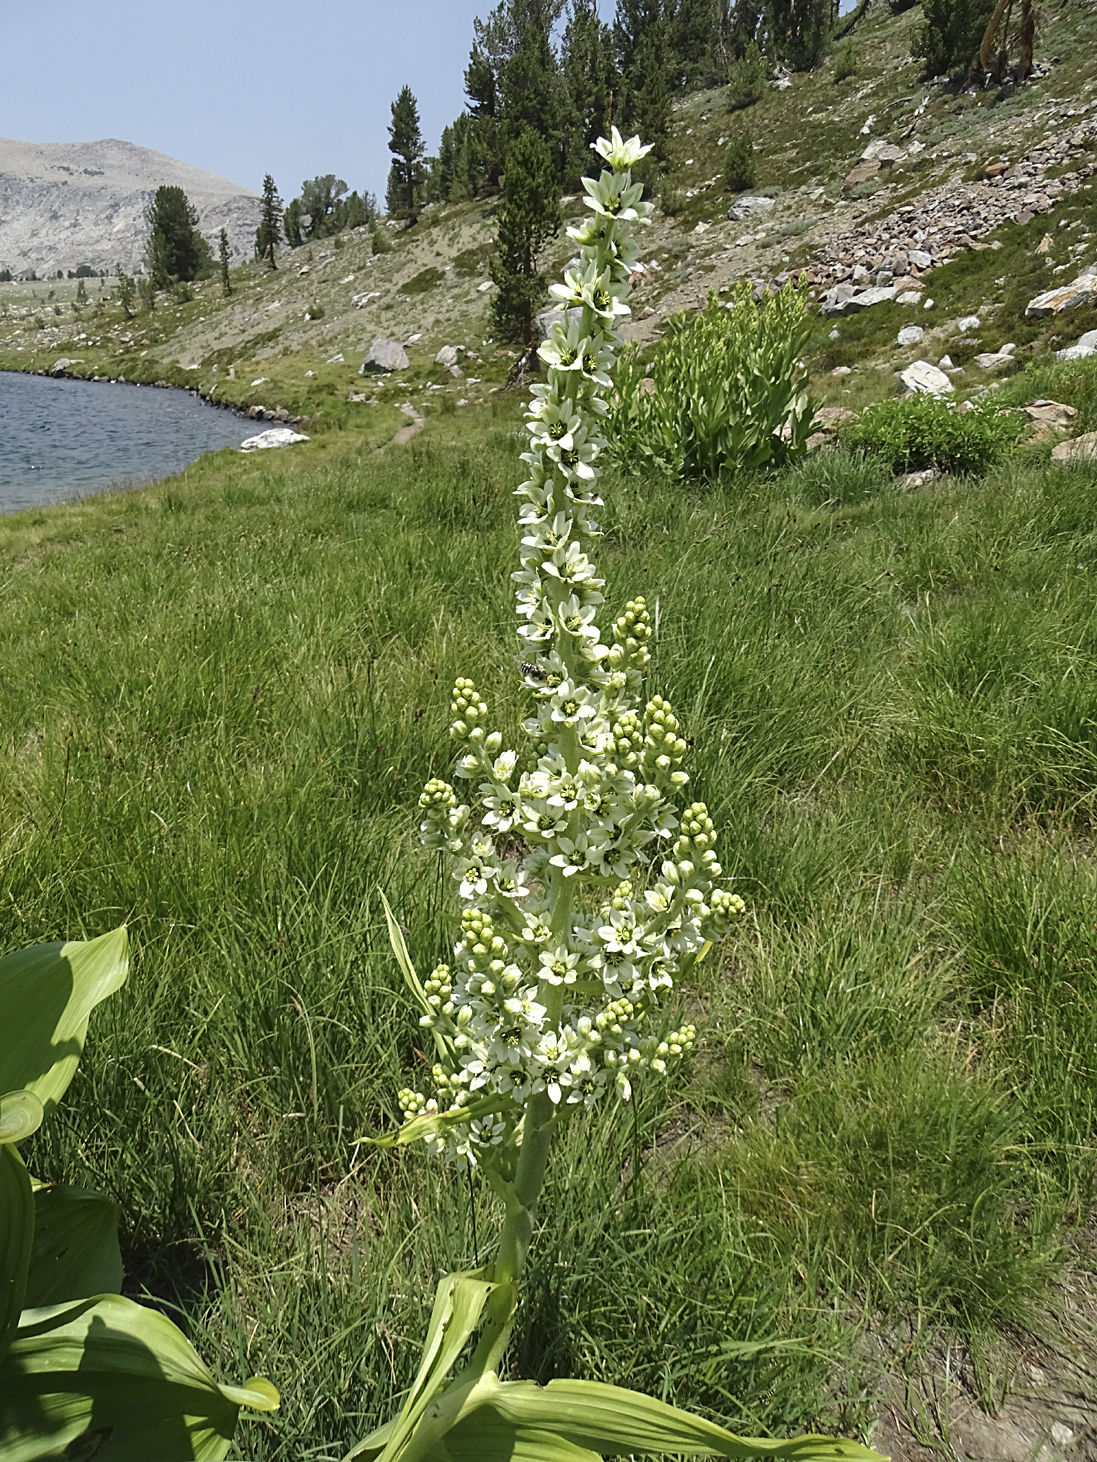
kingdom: Plantae
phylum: Tracheophyta
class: Liliopsida
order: Liliales
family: Melanthiaceae
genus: Veratrum
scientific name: Veratrum californicum
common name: California veratrum
